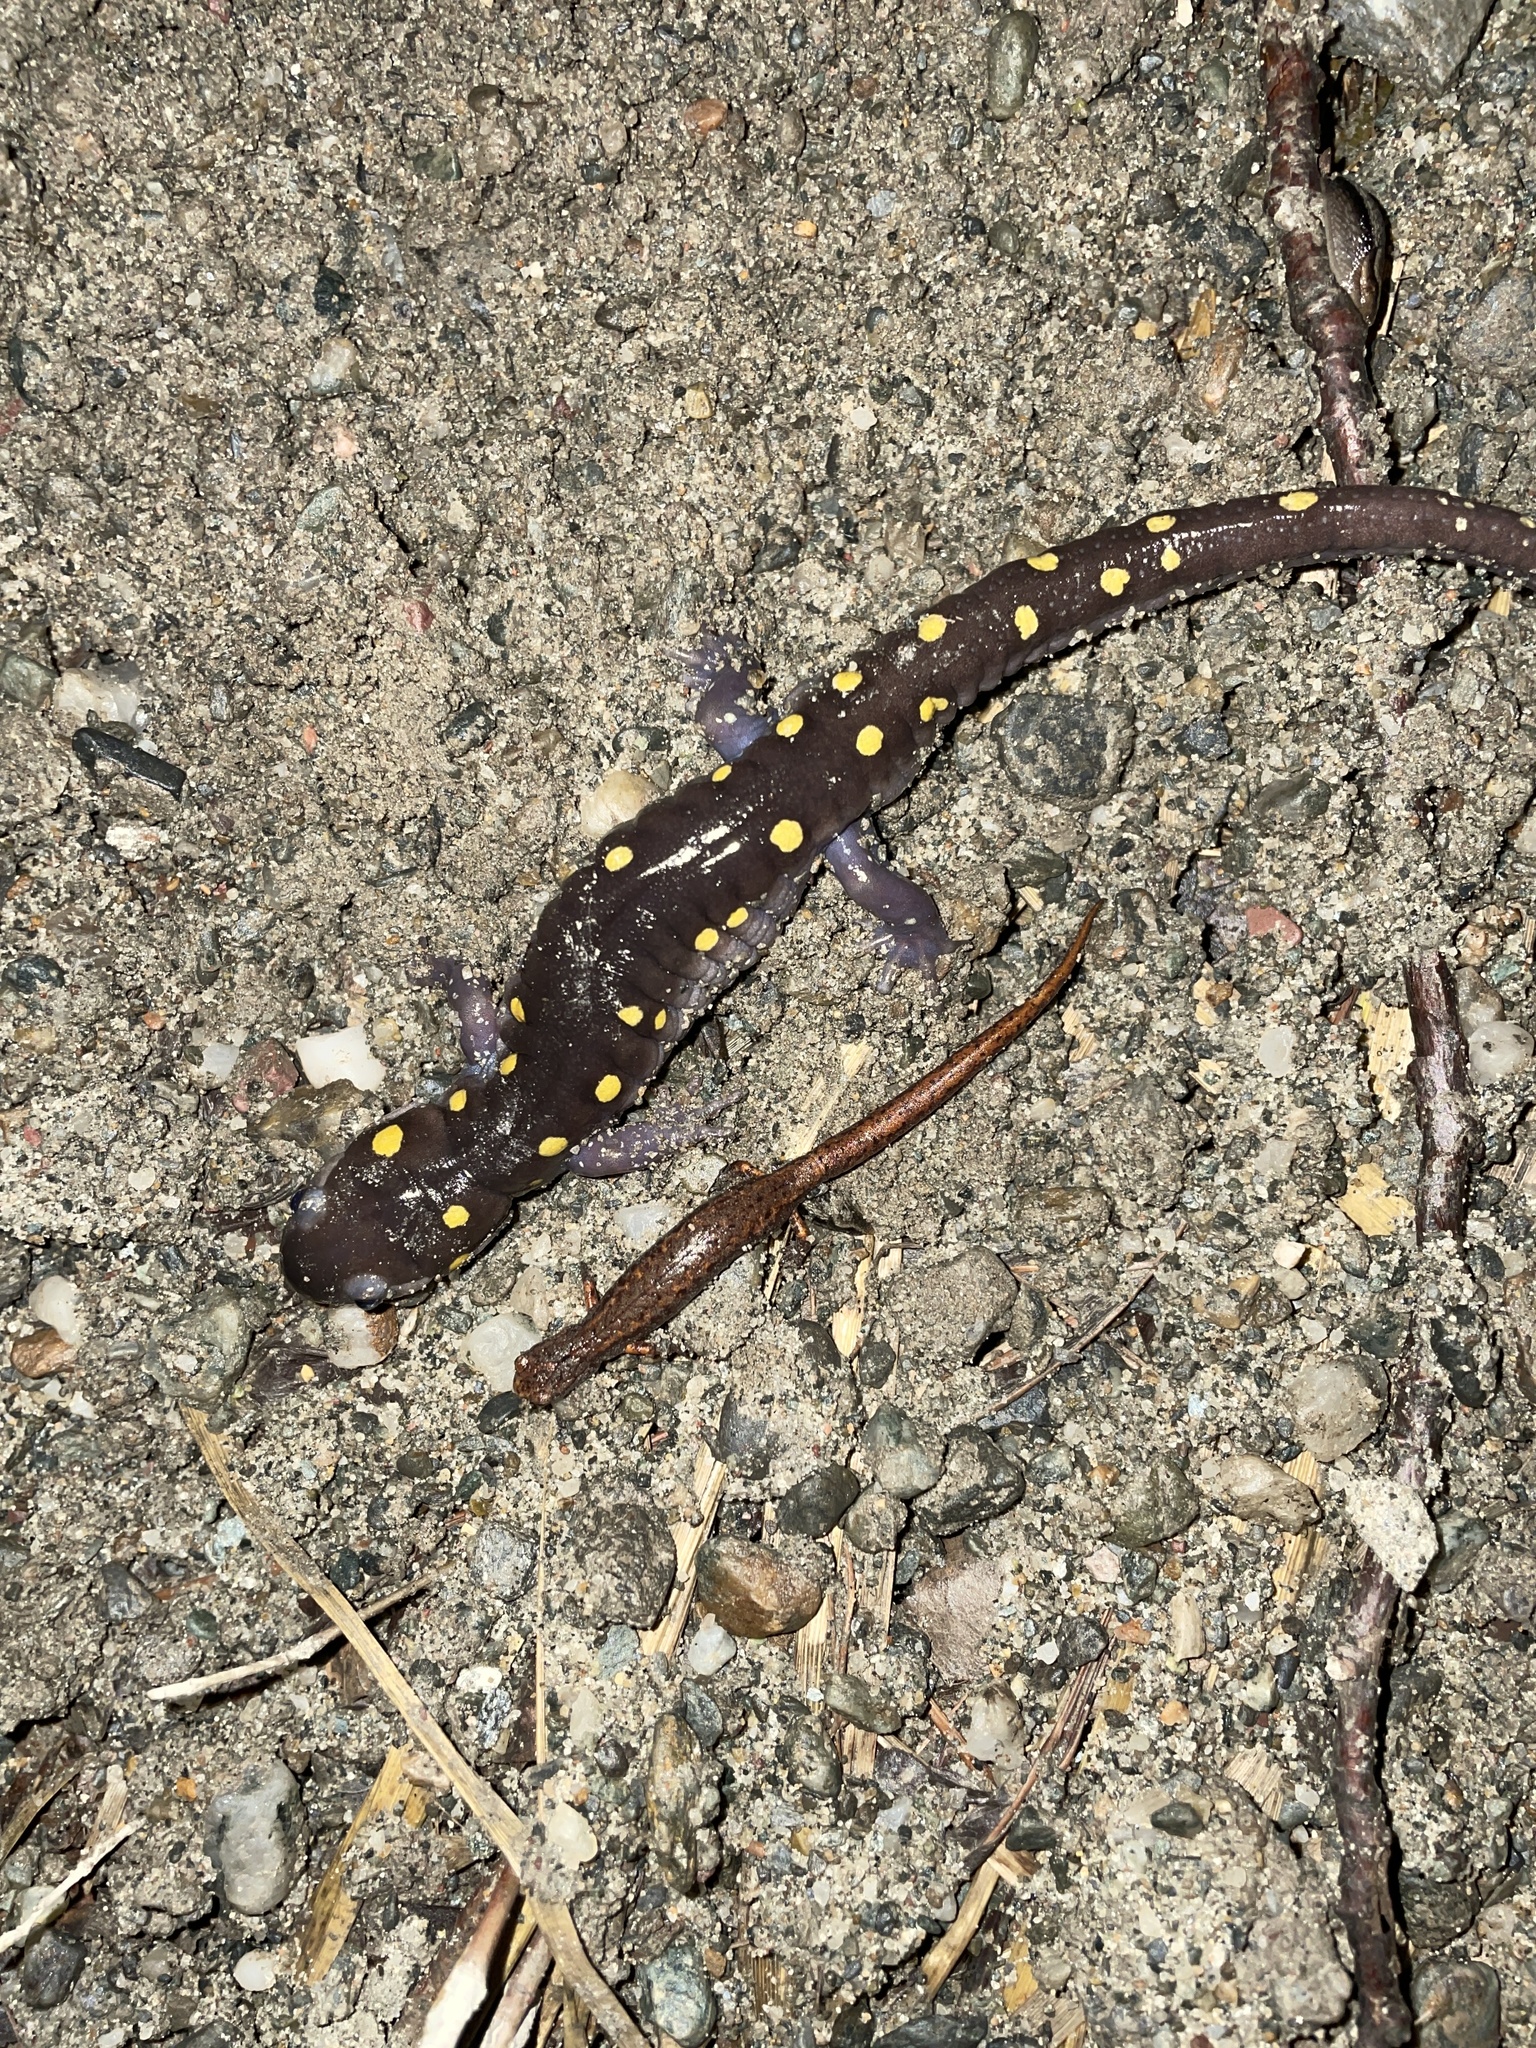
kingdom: Animalia
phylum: Chordata
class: Amphibia
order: Caudata
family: Ambystomatidae
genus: Ambystoma
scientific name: Ambystoma maculatum
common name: Spotted salamander
